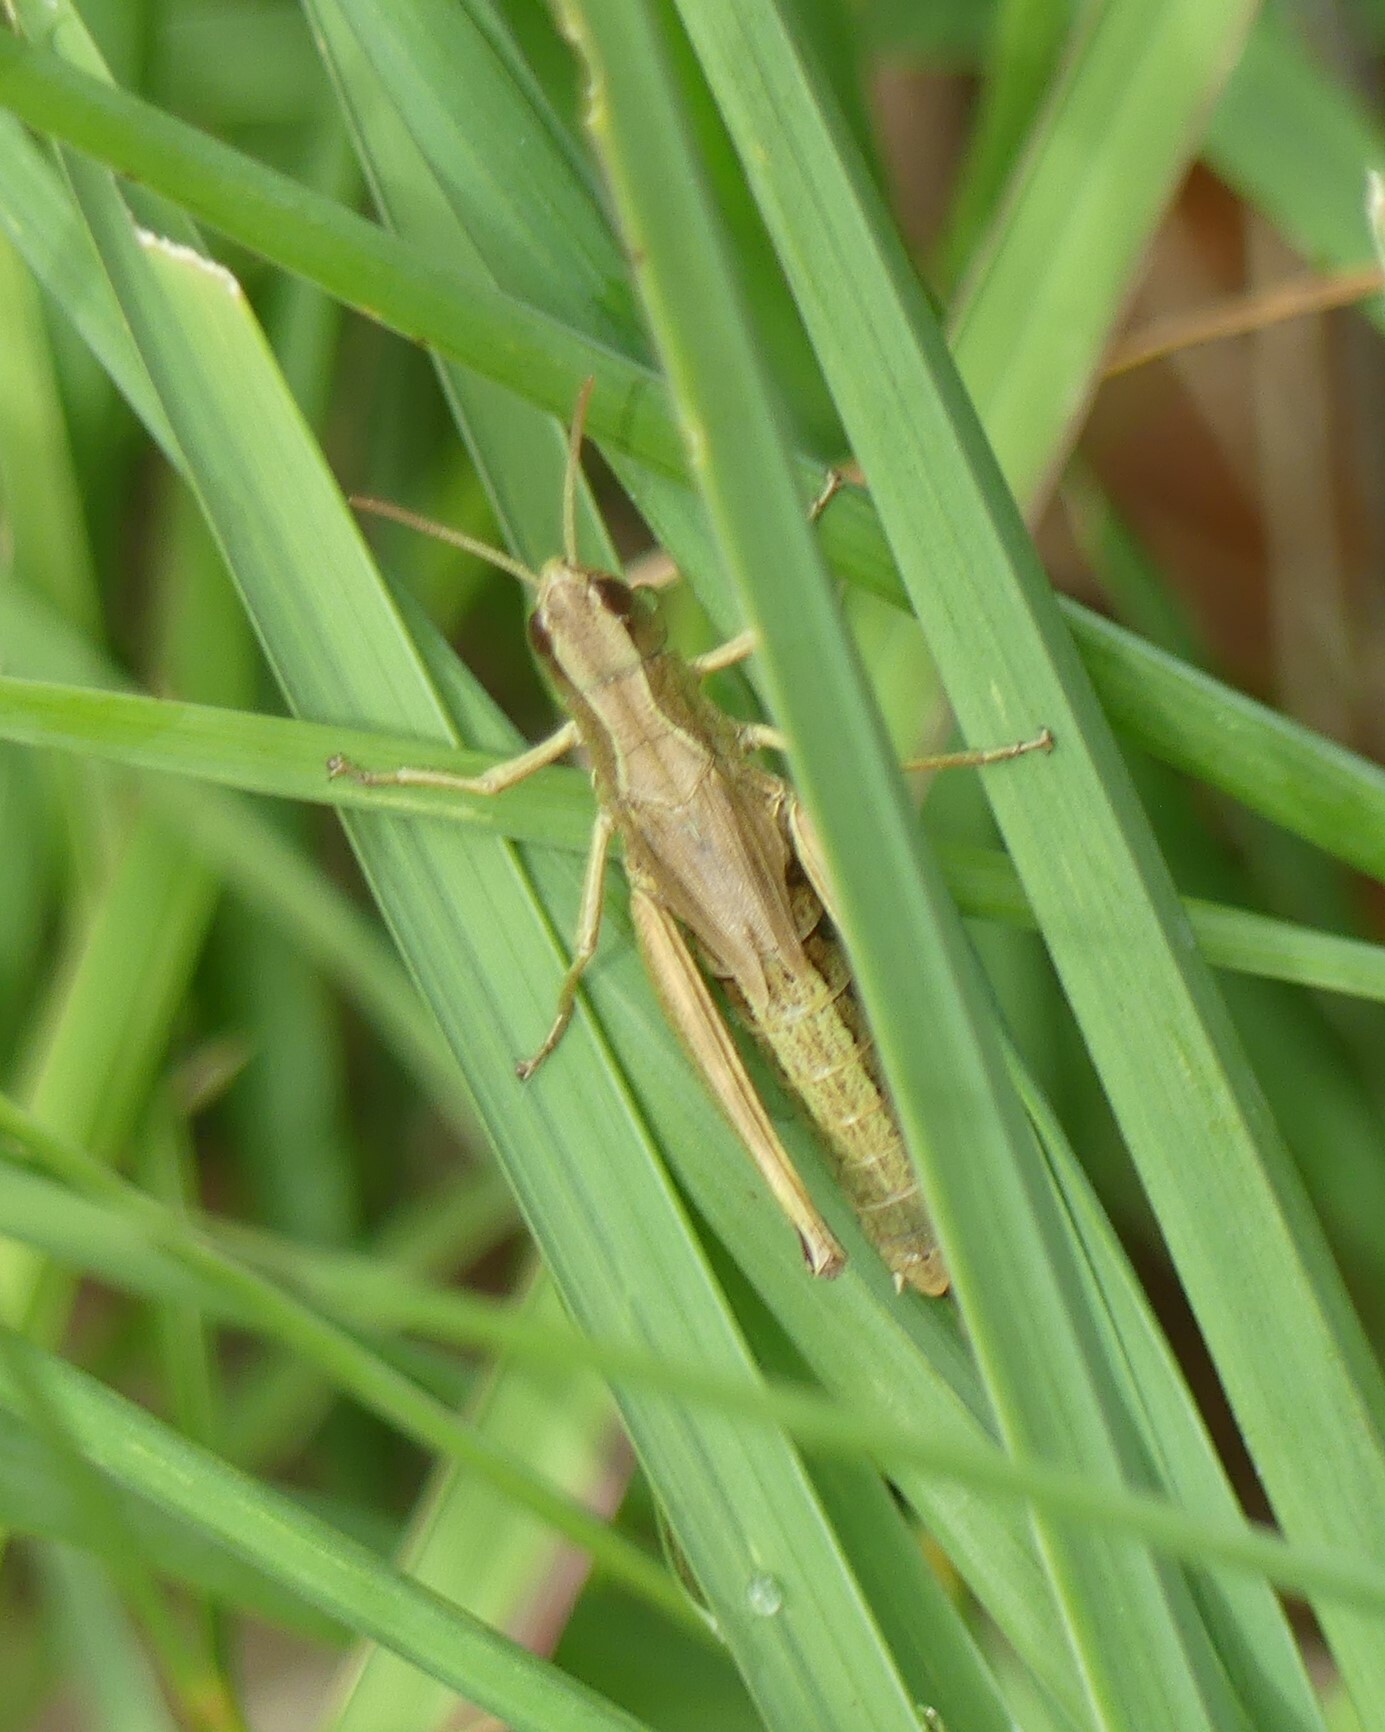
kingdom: Animalia
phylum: Arthropoda
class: Insecta
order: Orthoptera
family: Acrididae
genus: Pseudochorthippus
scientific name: Pseudochorthippus parallelus
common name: Meadow grasshopper
